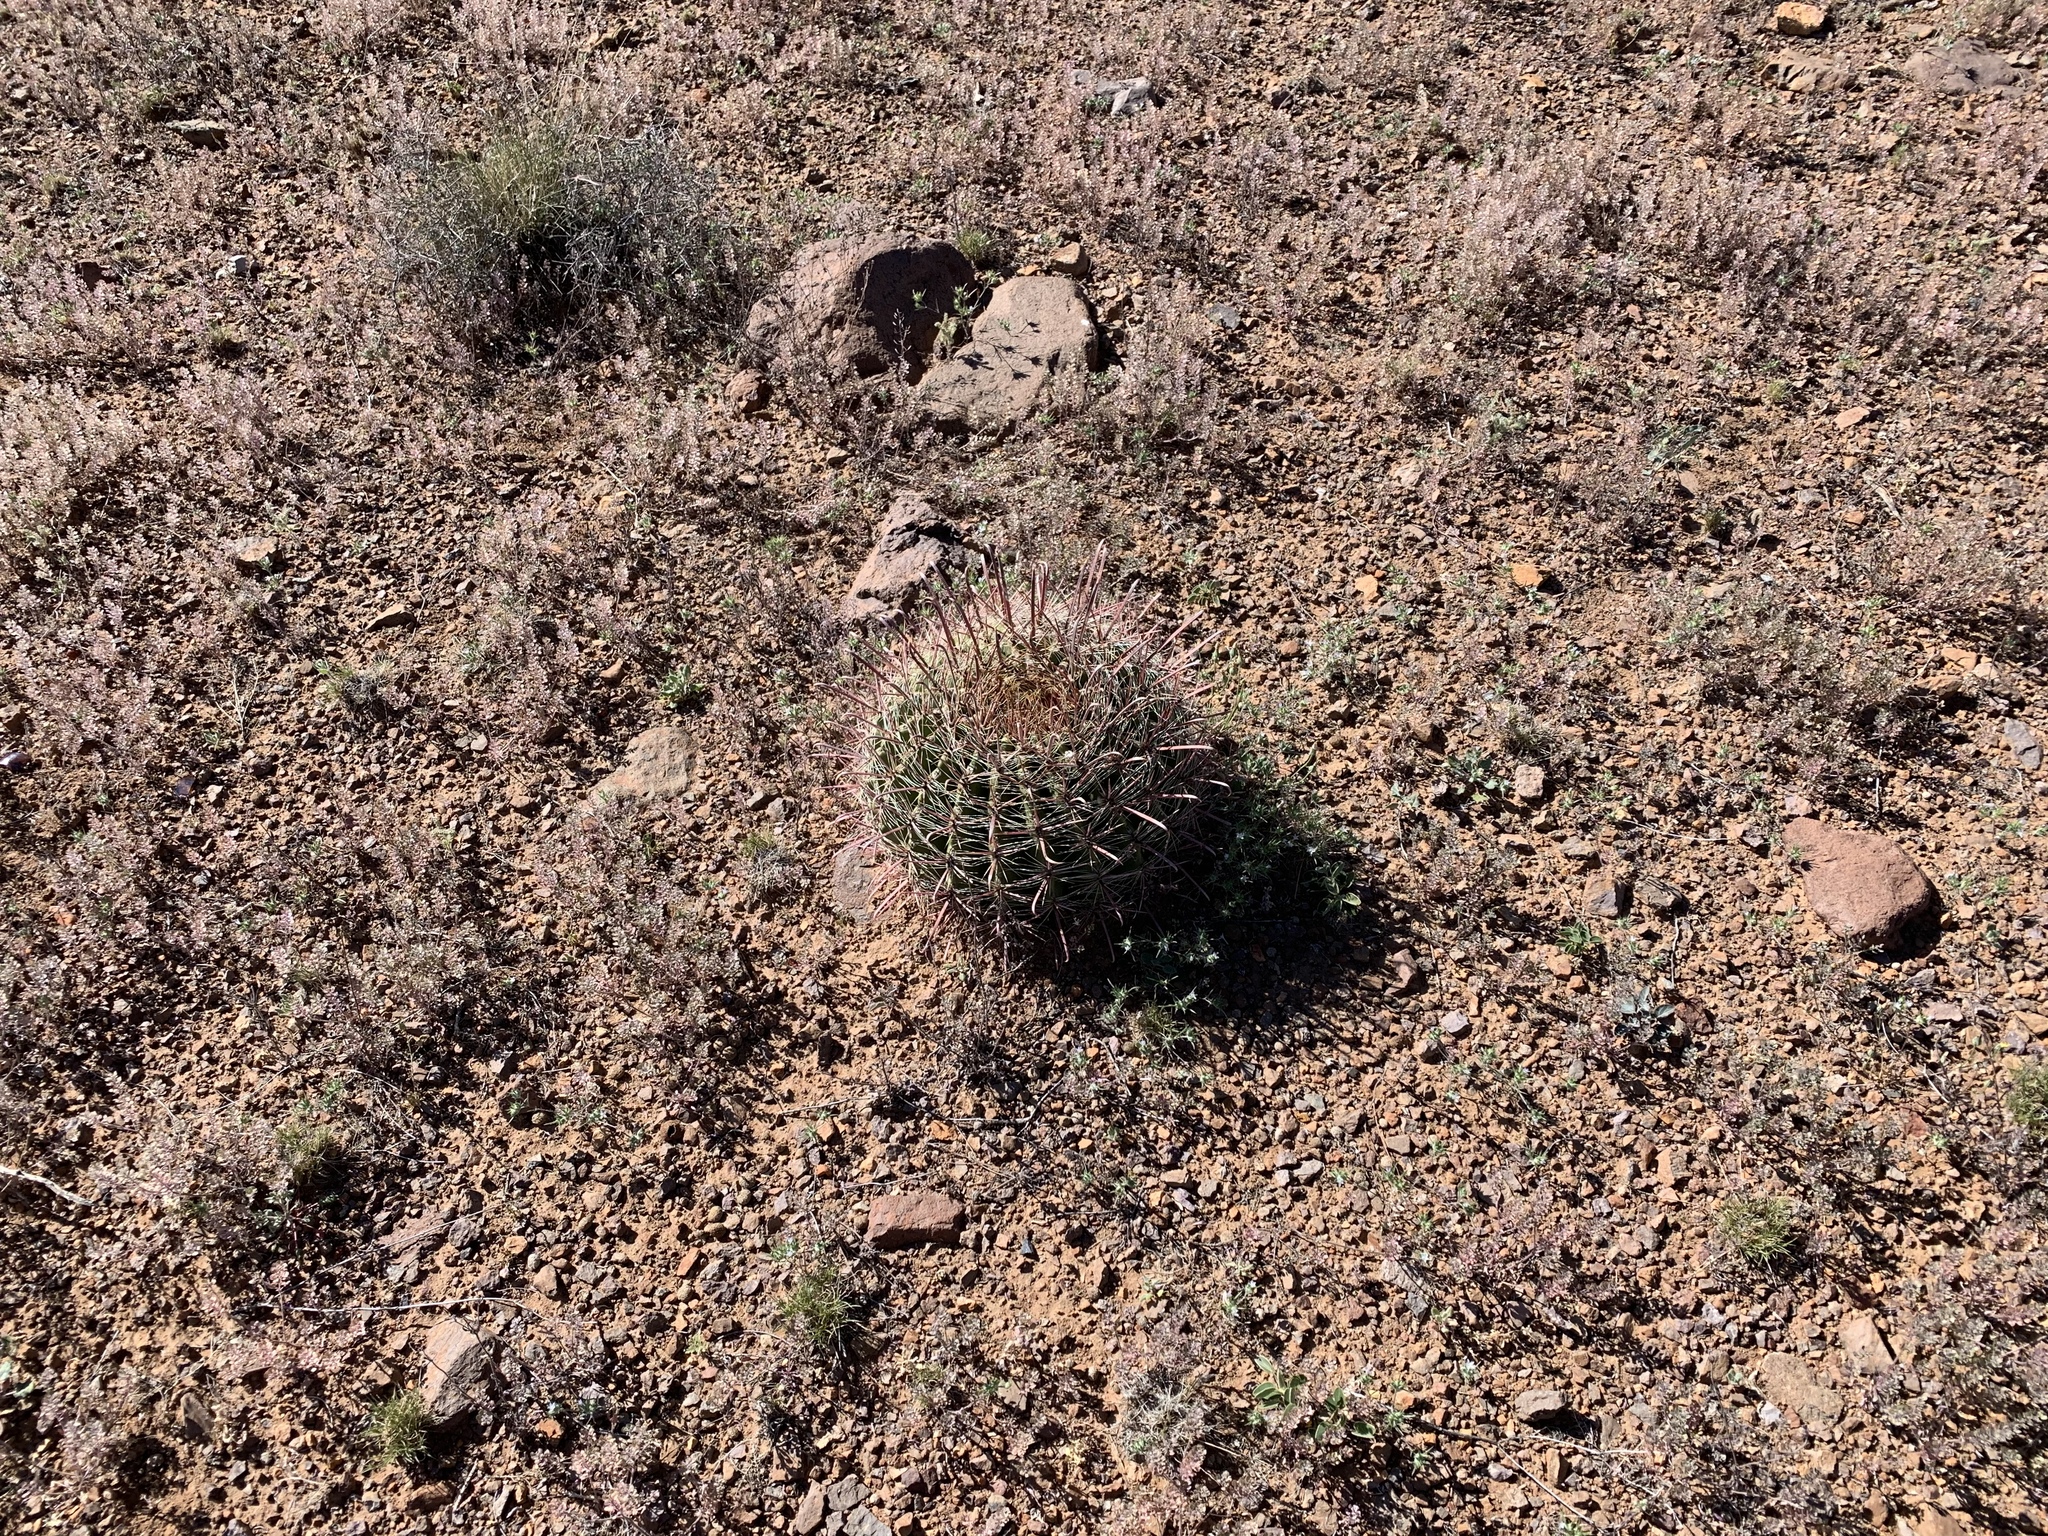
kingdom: Plantae
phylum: Tracheophyta
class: Magnoliopsida
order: Caryophyllales
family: Cactaceae
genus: Ferocactus
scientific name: Ferocactus wislizeni
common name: Candy barrel cactus
